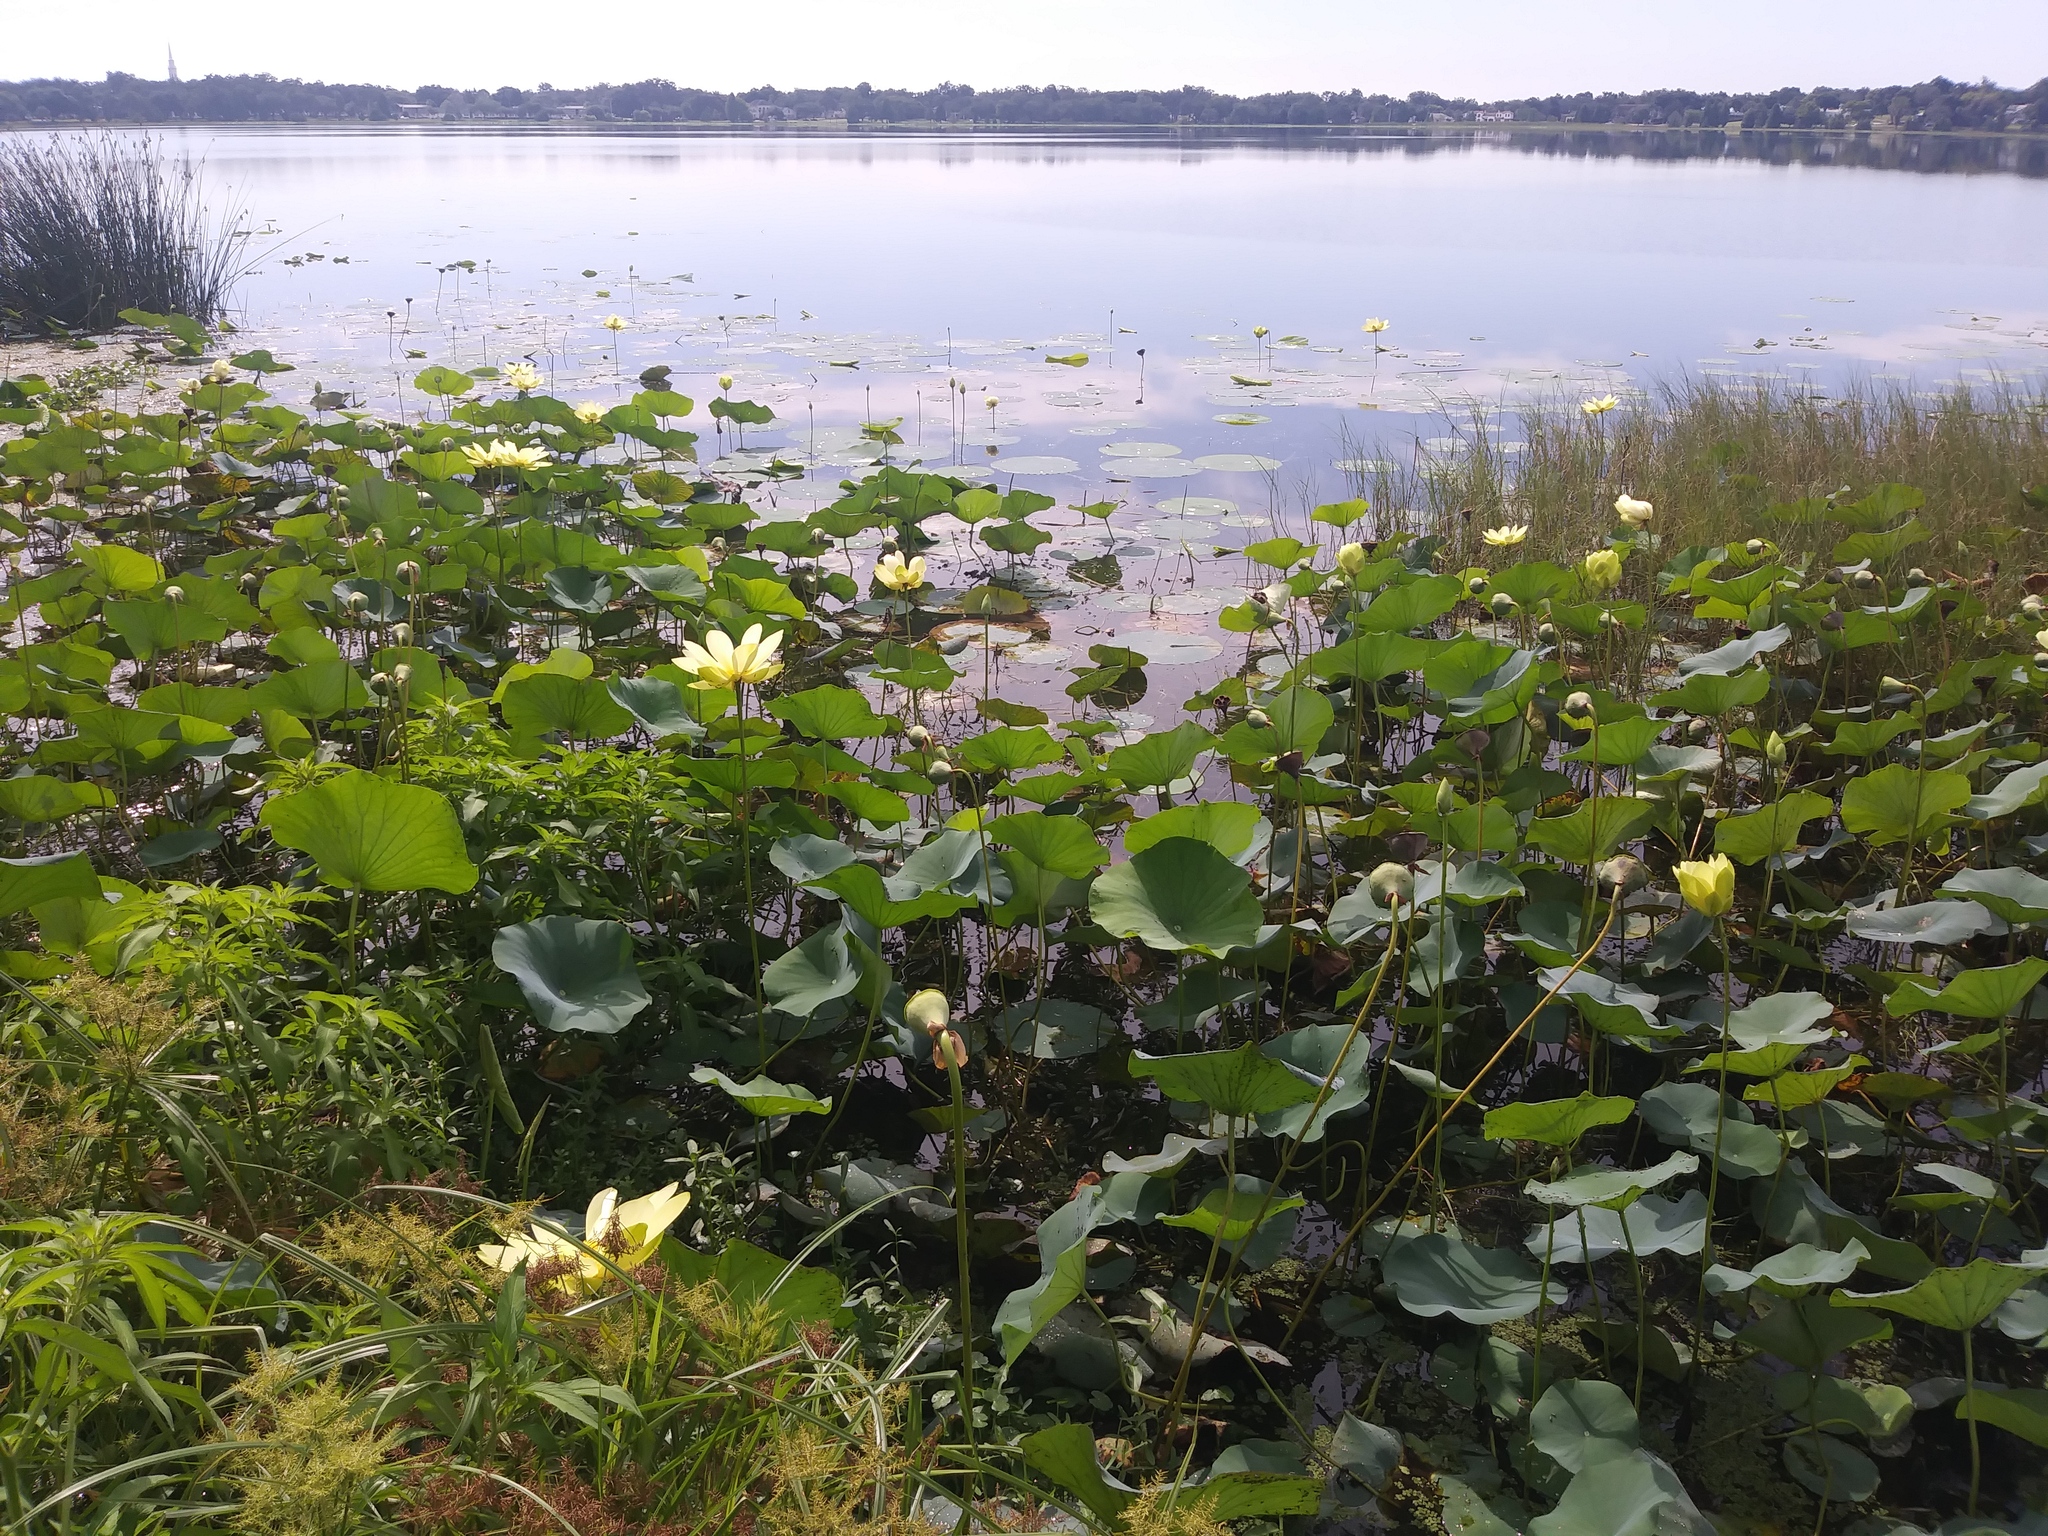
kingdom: Plantae
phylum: Tracheophyta
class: Magnoliopsida
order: Proteales
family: Nelumbonaceae
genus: Nelumbo
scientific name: Nelumbo lutea
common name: American lotus
